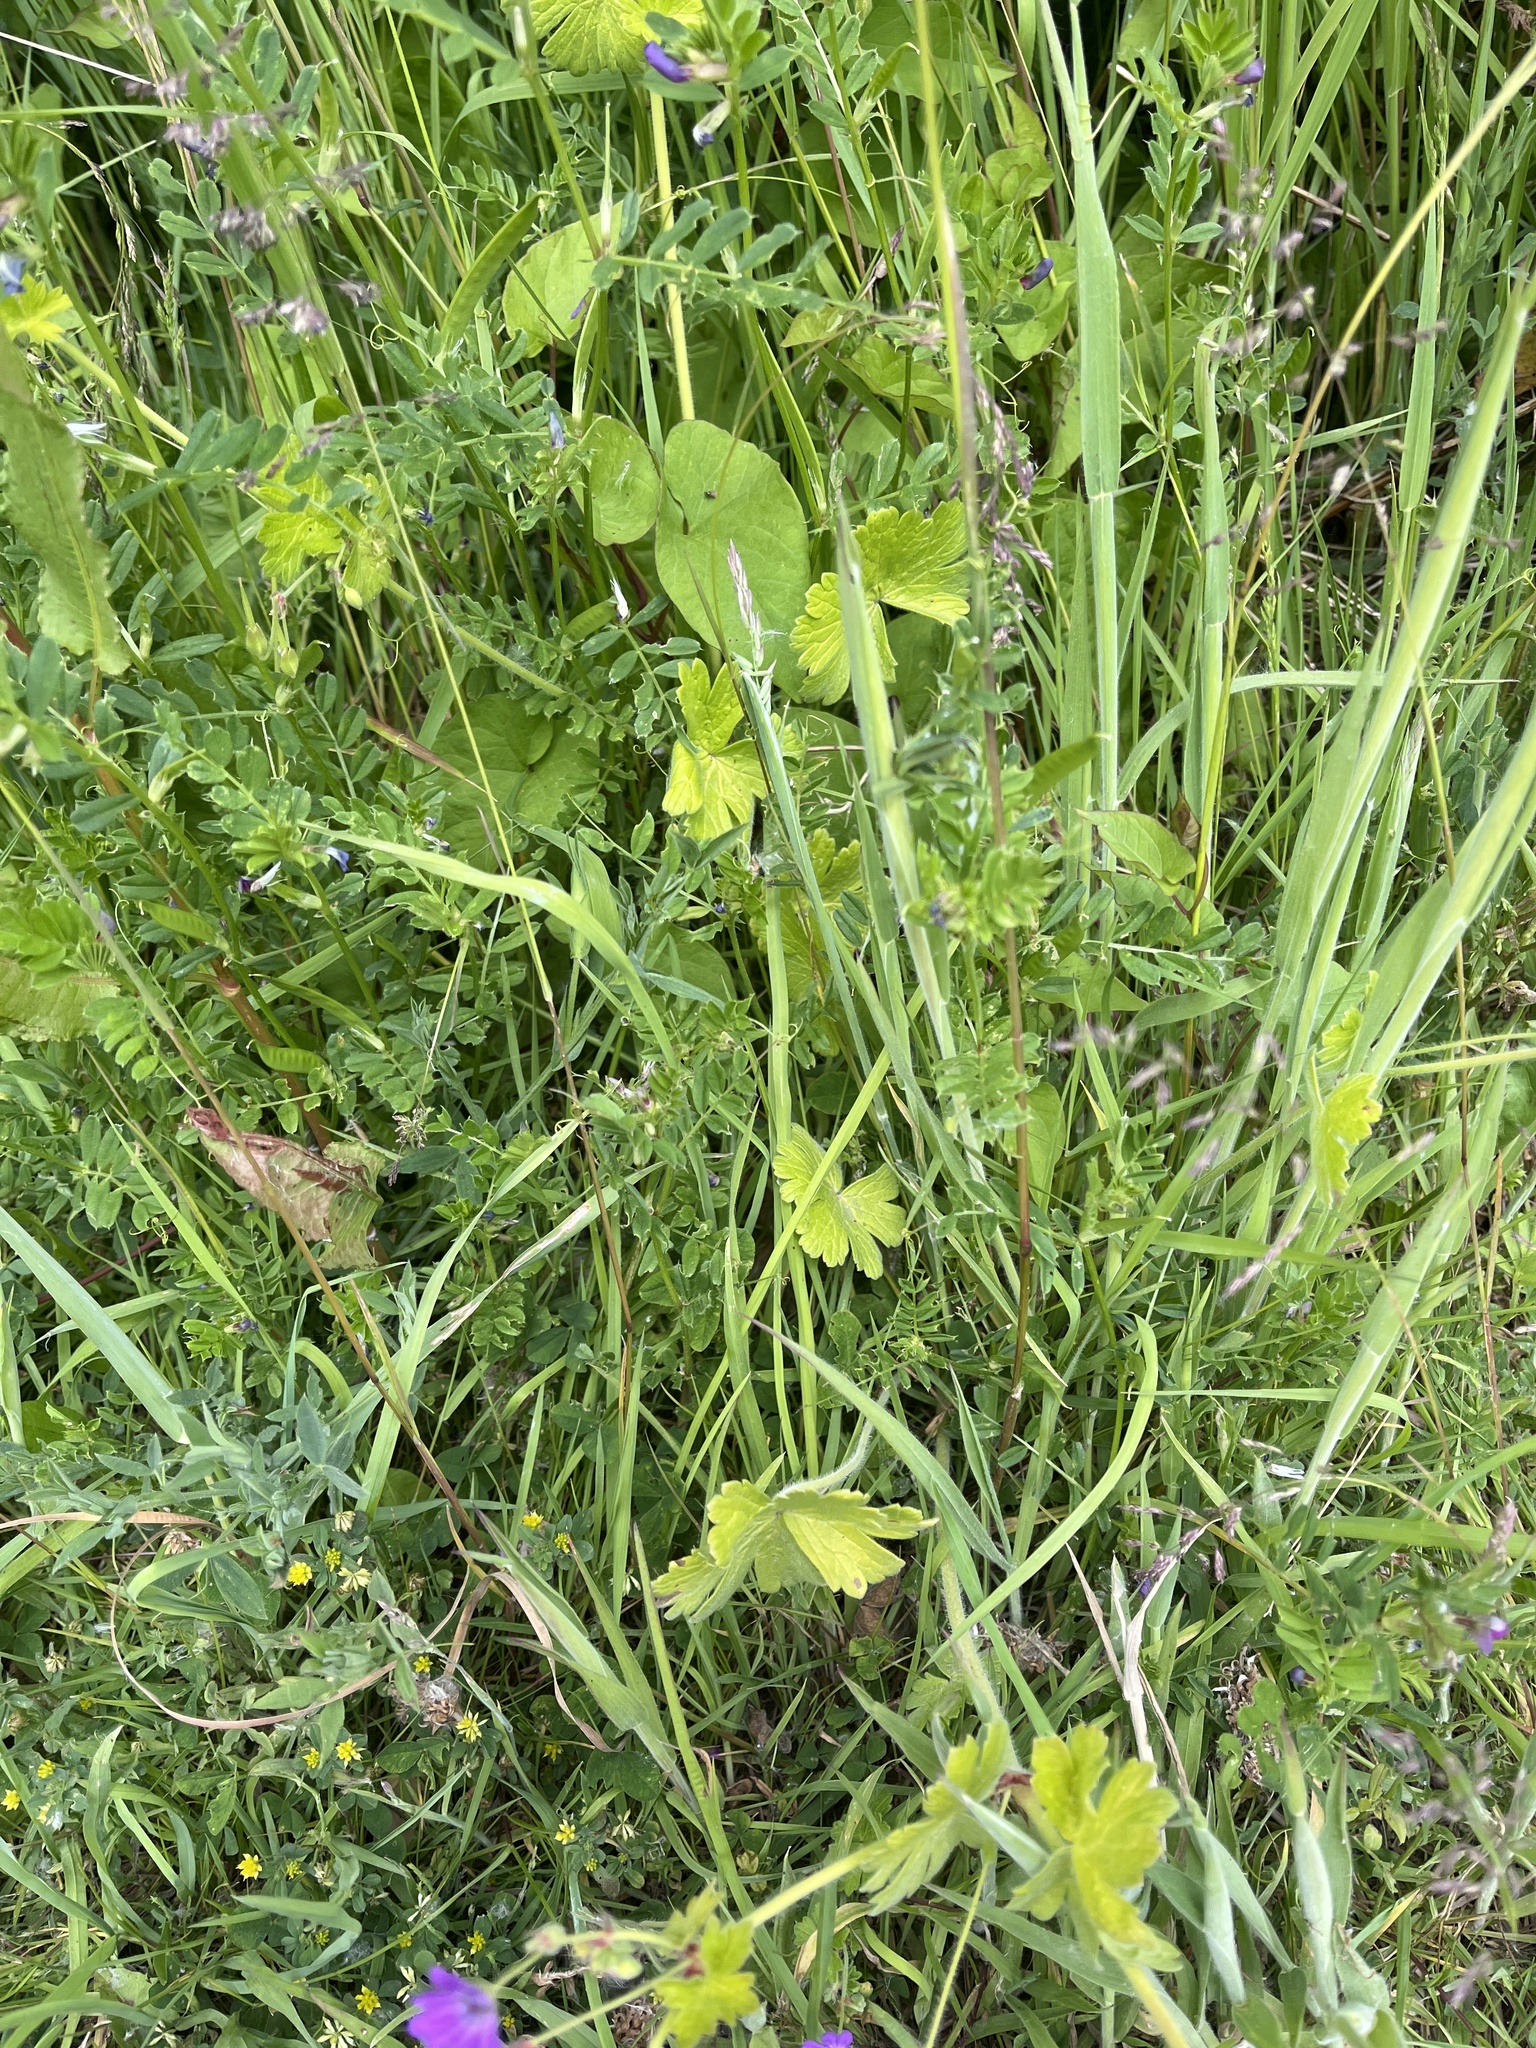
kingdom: Plantae
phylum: Tracheophyta
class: Magnoliopsida
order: Geraniales
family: Geraniaceae
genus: Geranium
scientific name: Geranium pyrenaicum
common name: Hedgerow crane's-bill
